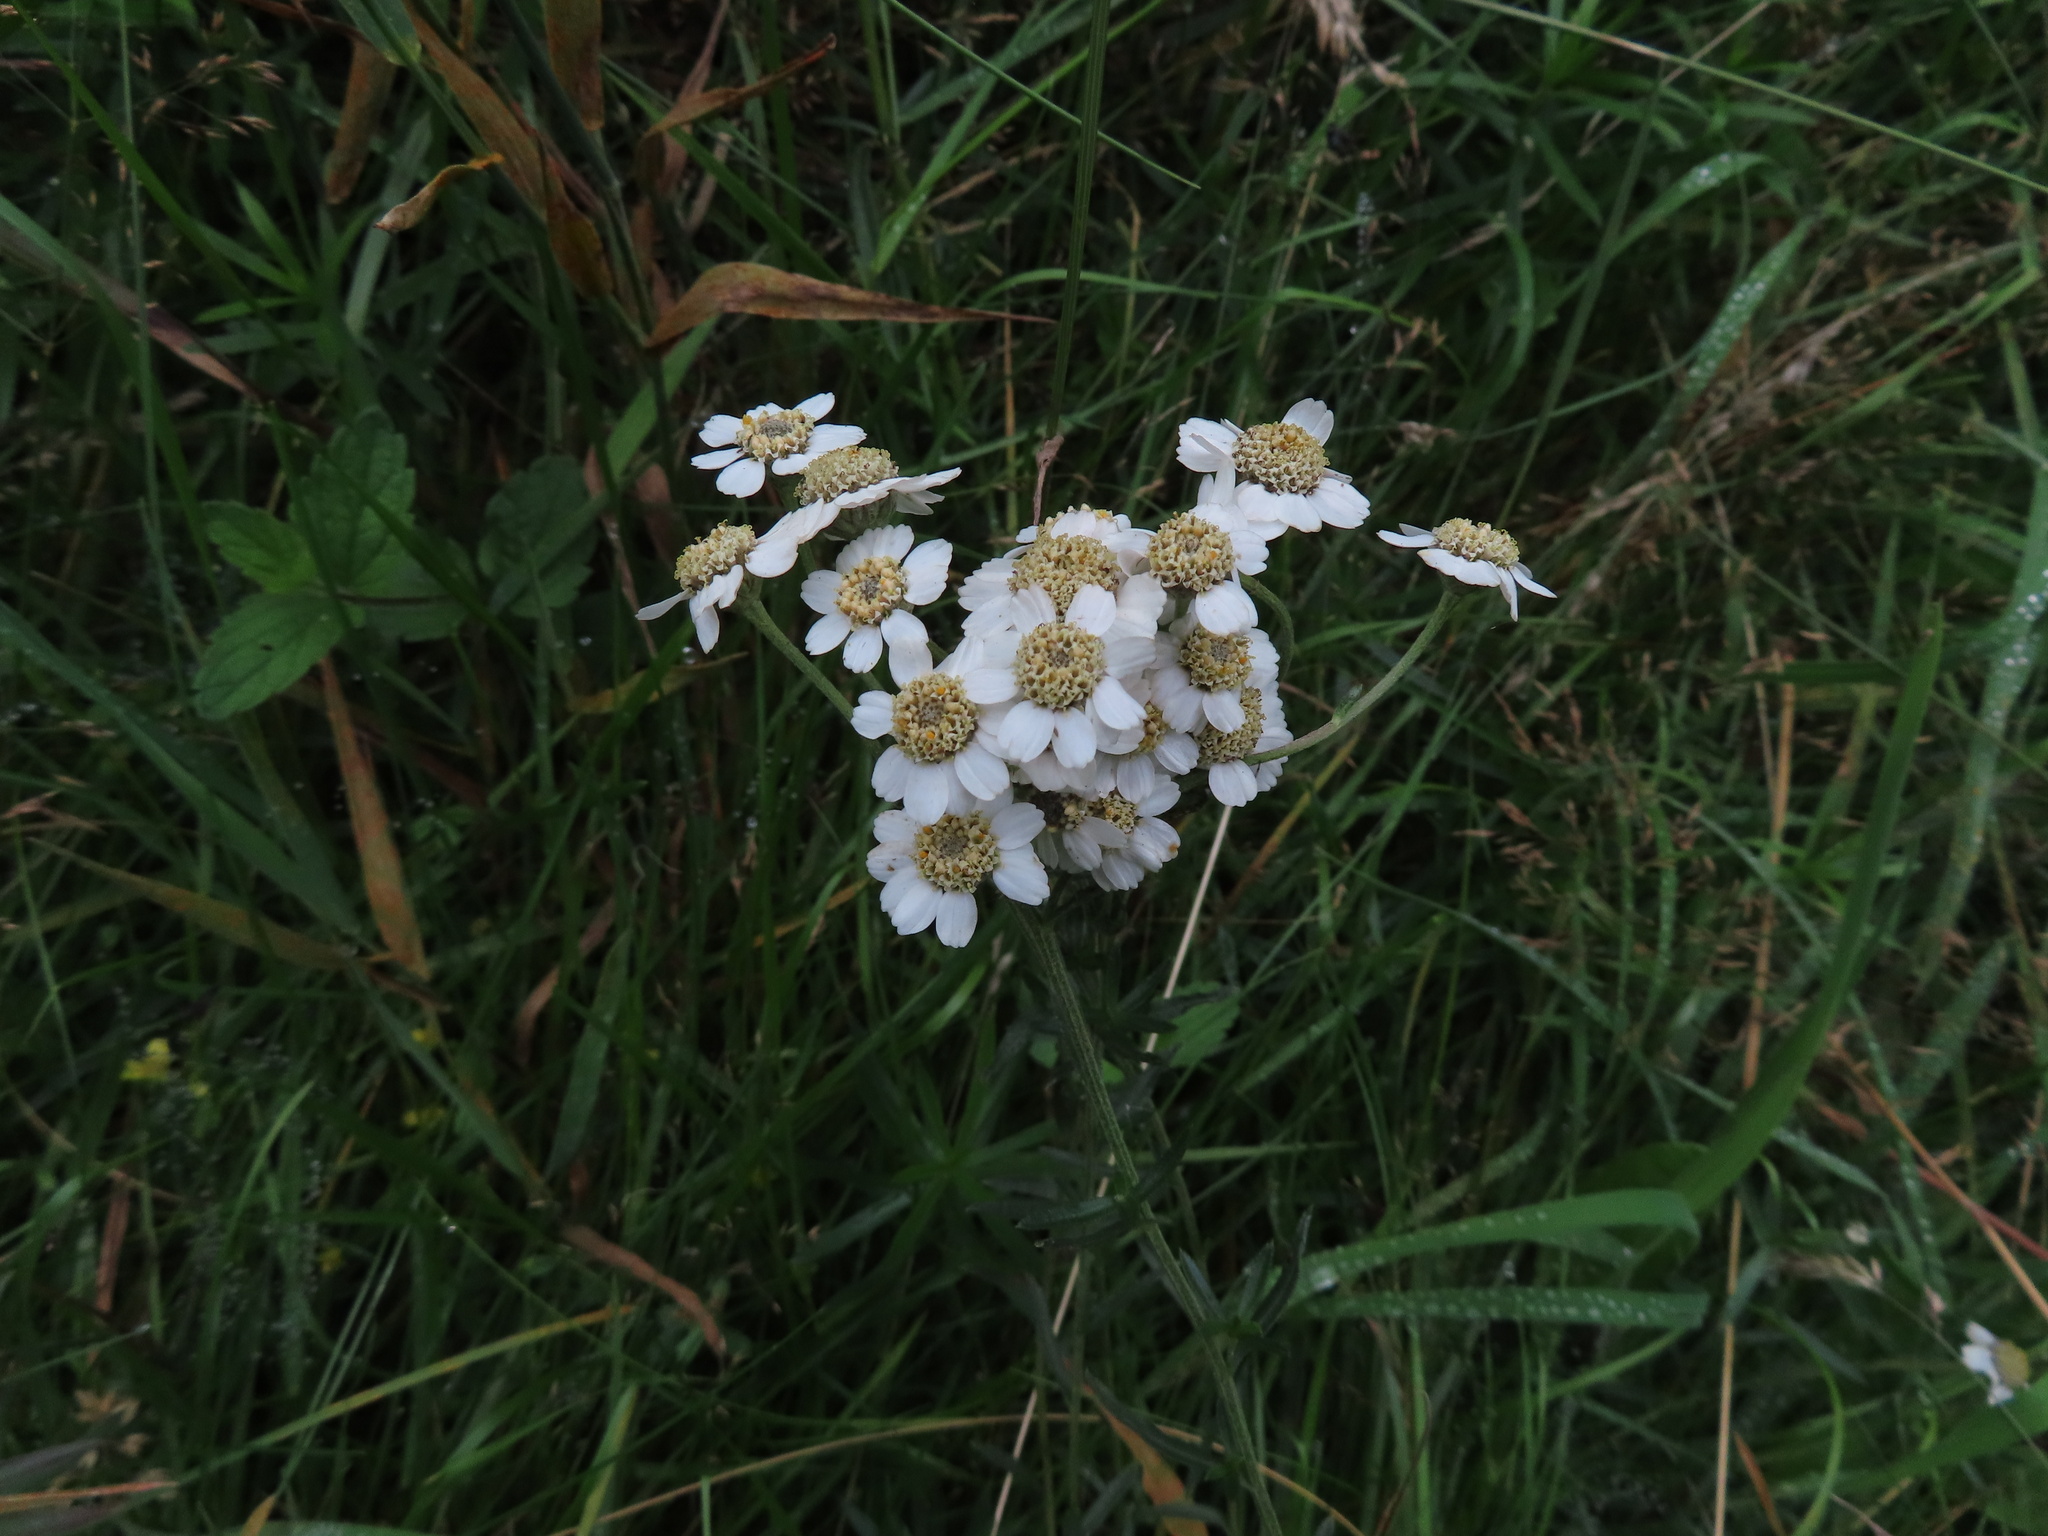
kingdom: Plantae
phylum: Tracheophyta
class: Magnoliopsida
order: Asterales
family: Asteraceae
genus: Achillea
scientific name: Achillea ptarmica
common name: Sneezeweed
